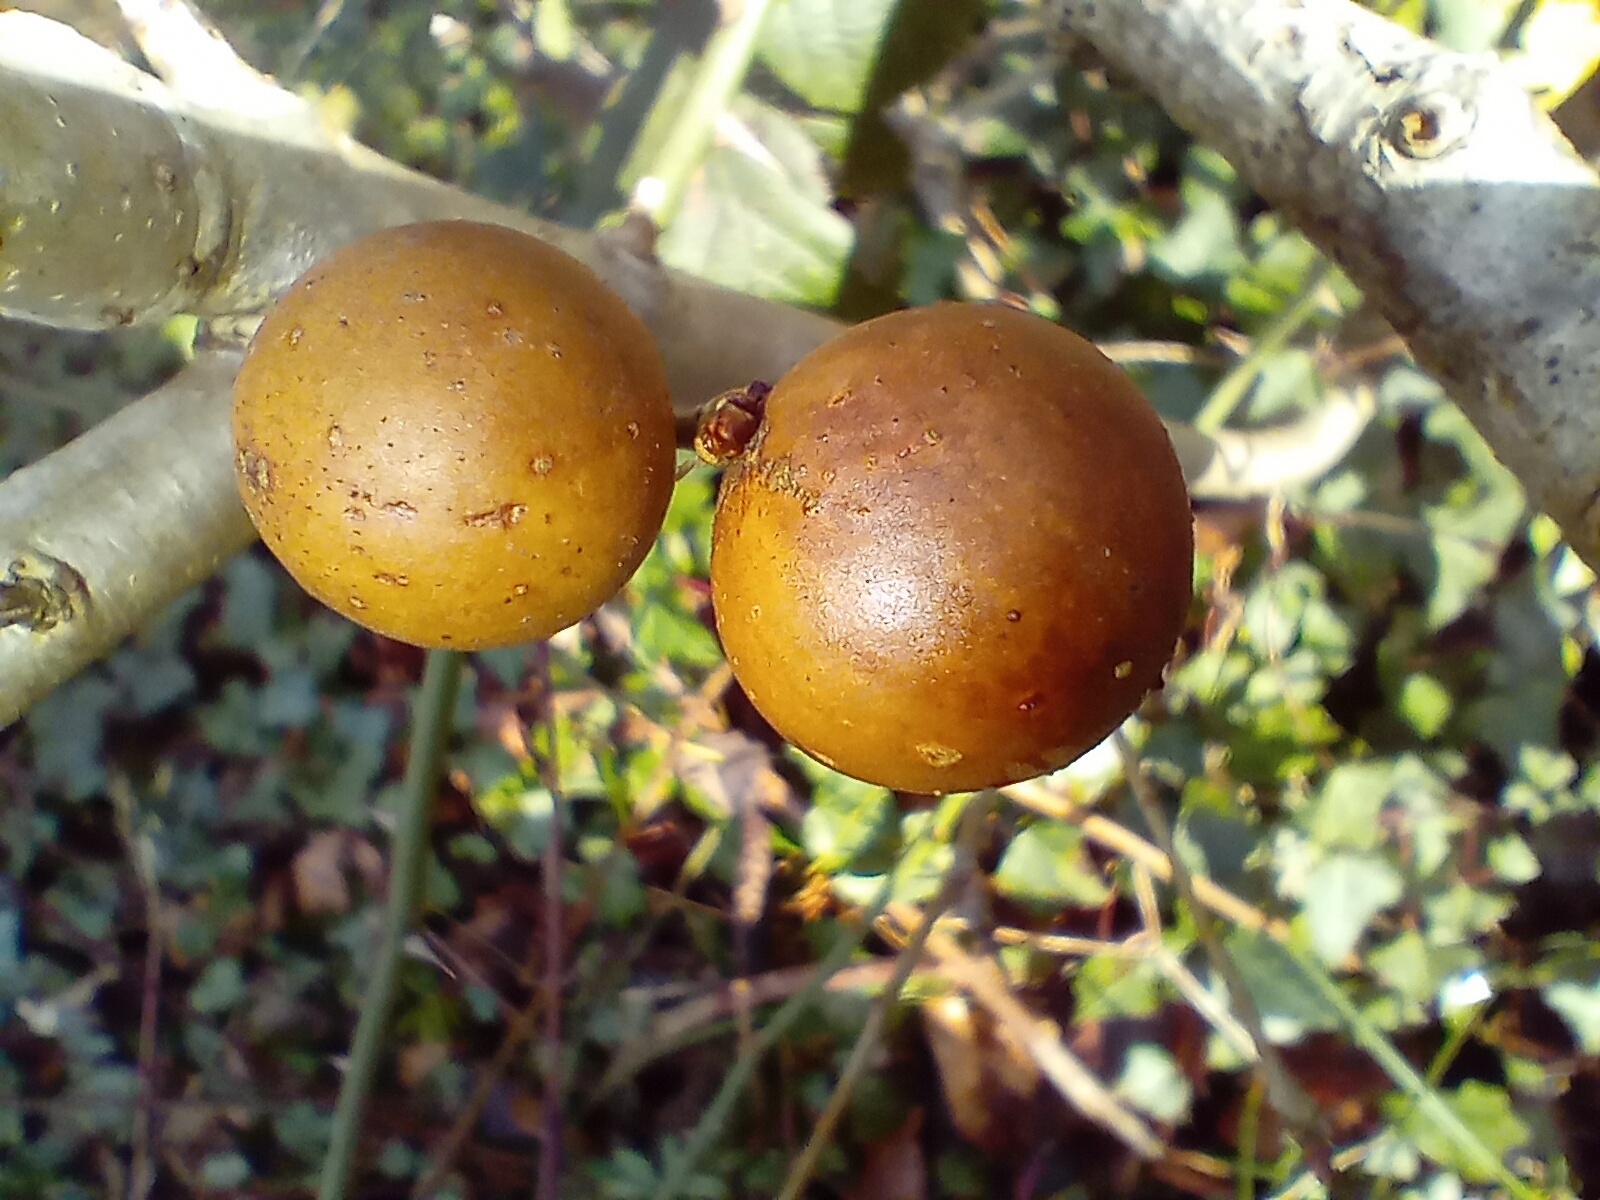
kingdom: Animalia
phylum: Arthropoda
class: Insecta
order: Hymenoptera
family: Cynipidae
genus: Andricus
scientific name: Andricus kollari
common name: Marble gall
